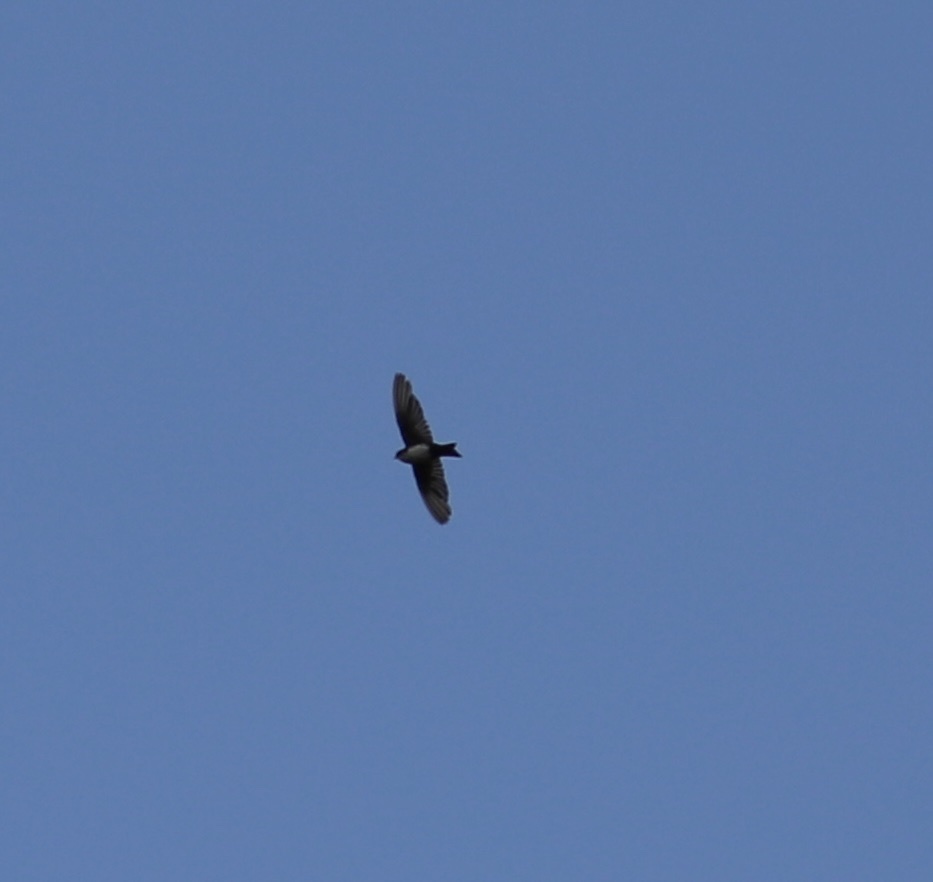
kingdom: Animalia
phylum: Chordata
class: Aves
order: Passeriformes
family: Hirundinidae
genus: Notiochelidon
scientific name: Notiochelidon cyanoleuca
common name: Blue-and-white swallow
